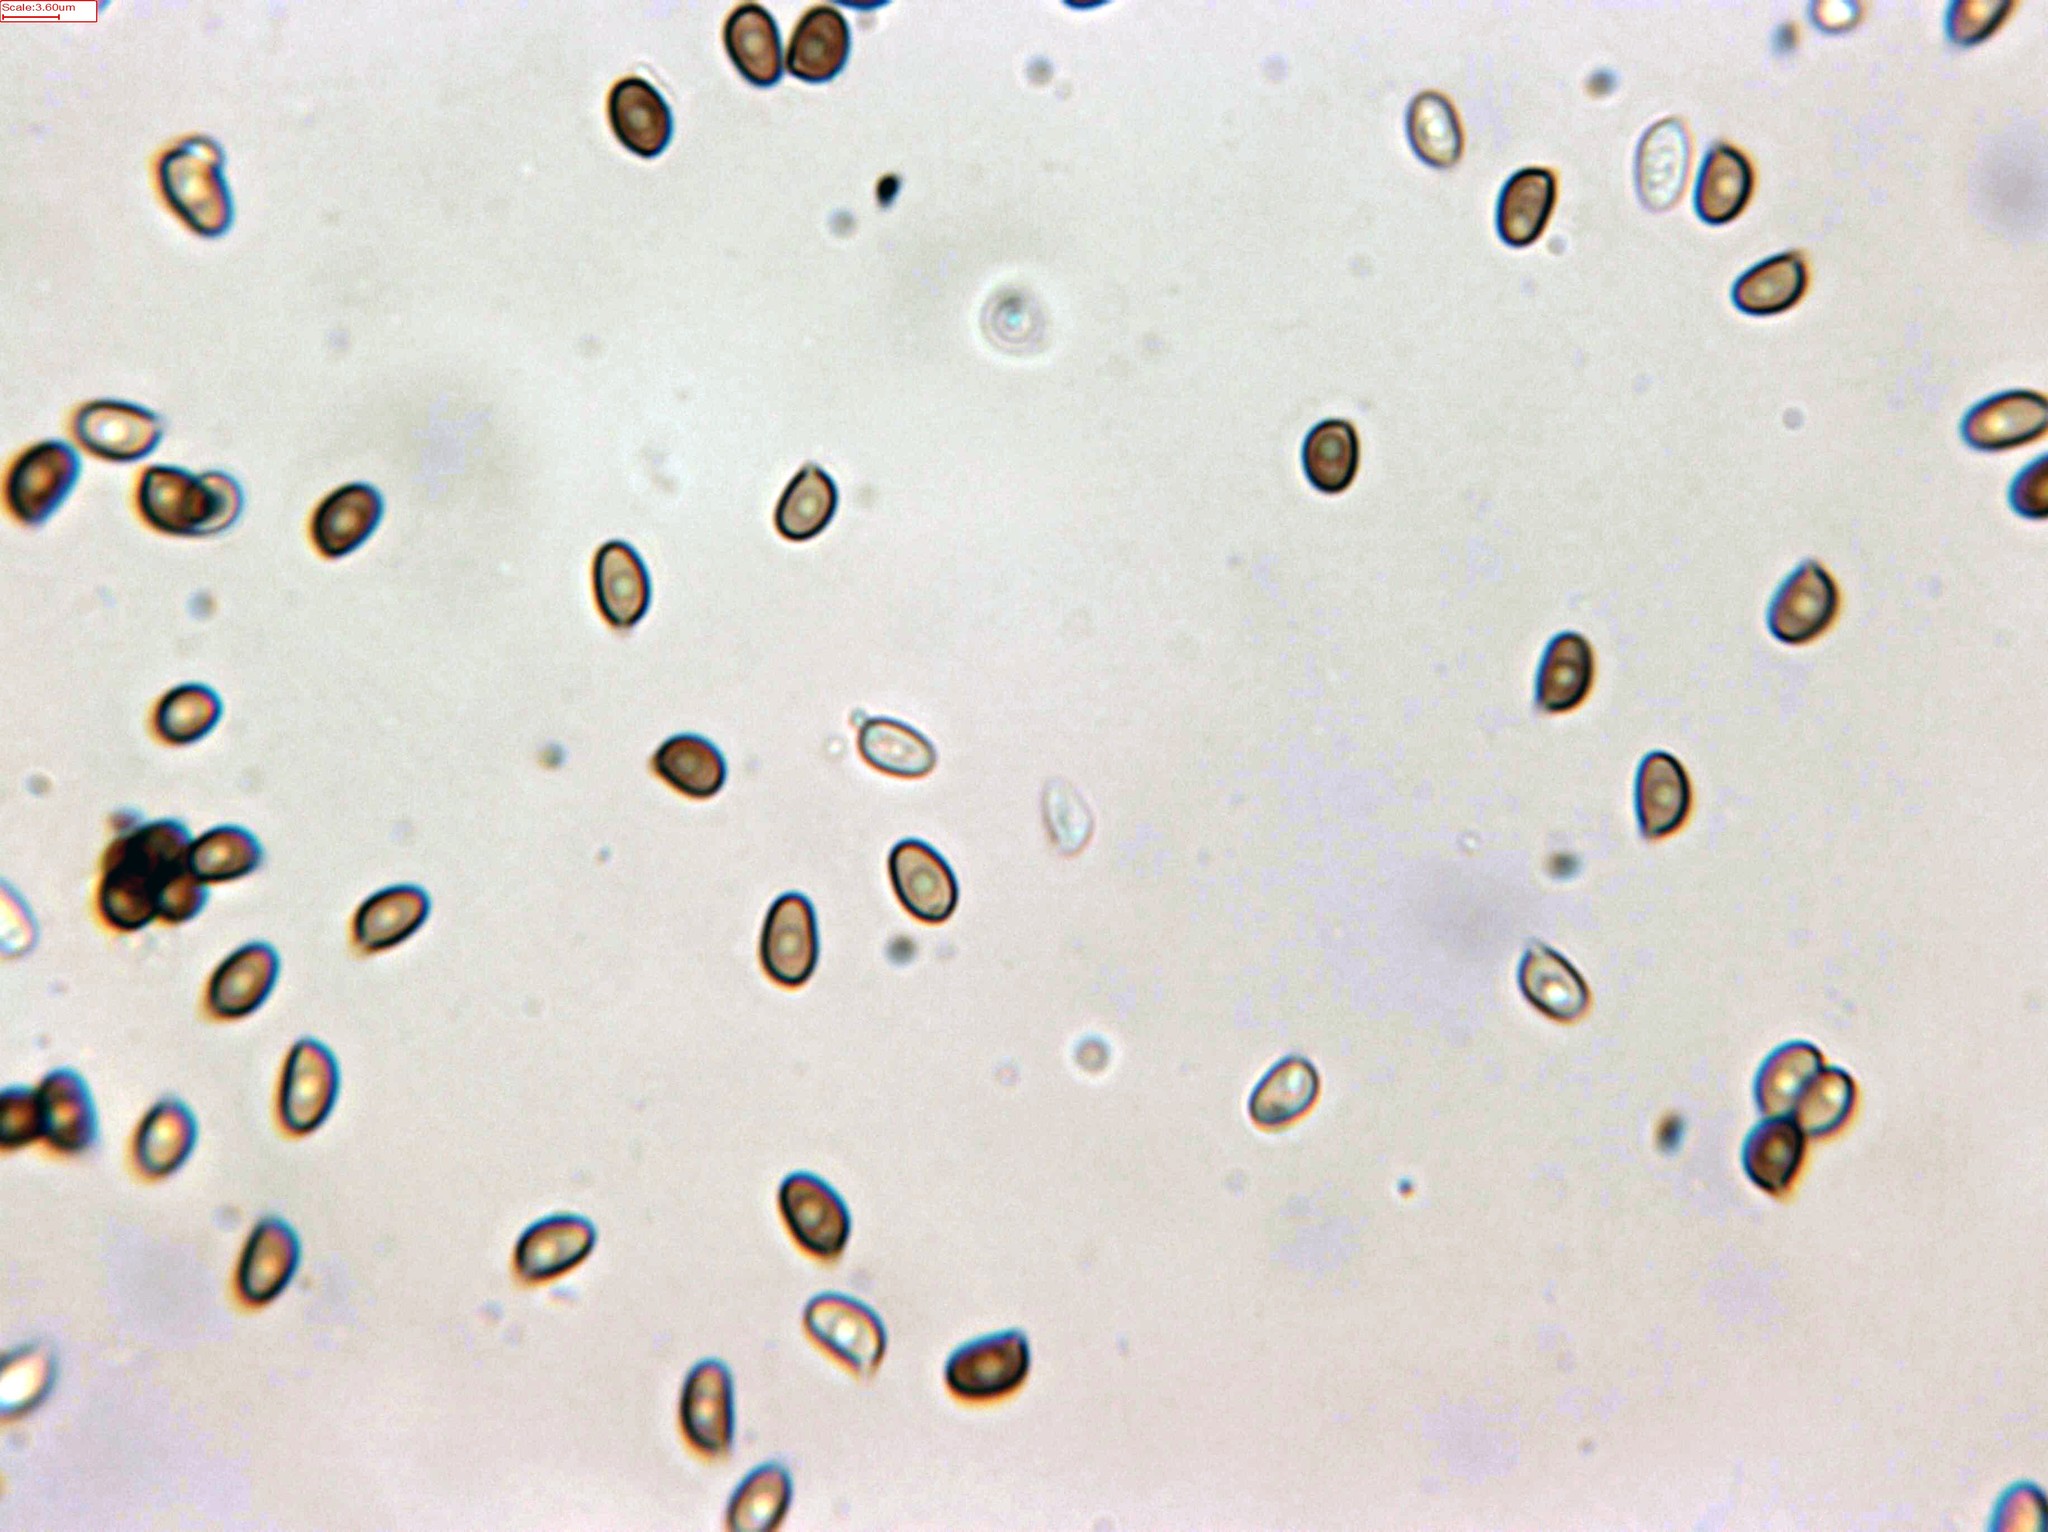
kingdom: Fungi
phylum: Basidiomycota
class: Agaricomycetes
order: Agaricales
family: Agaricaceae
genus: Agaricus
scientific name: Agaricus arorae
